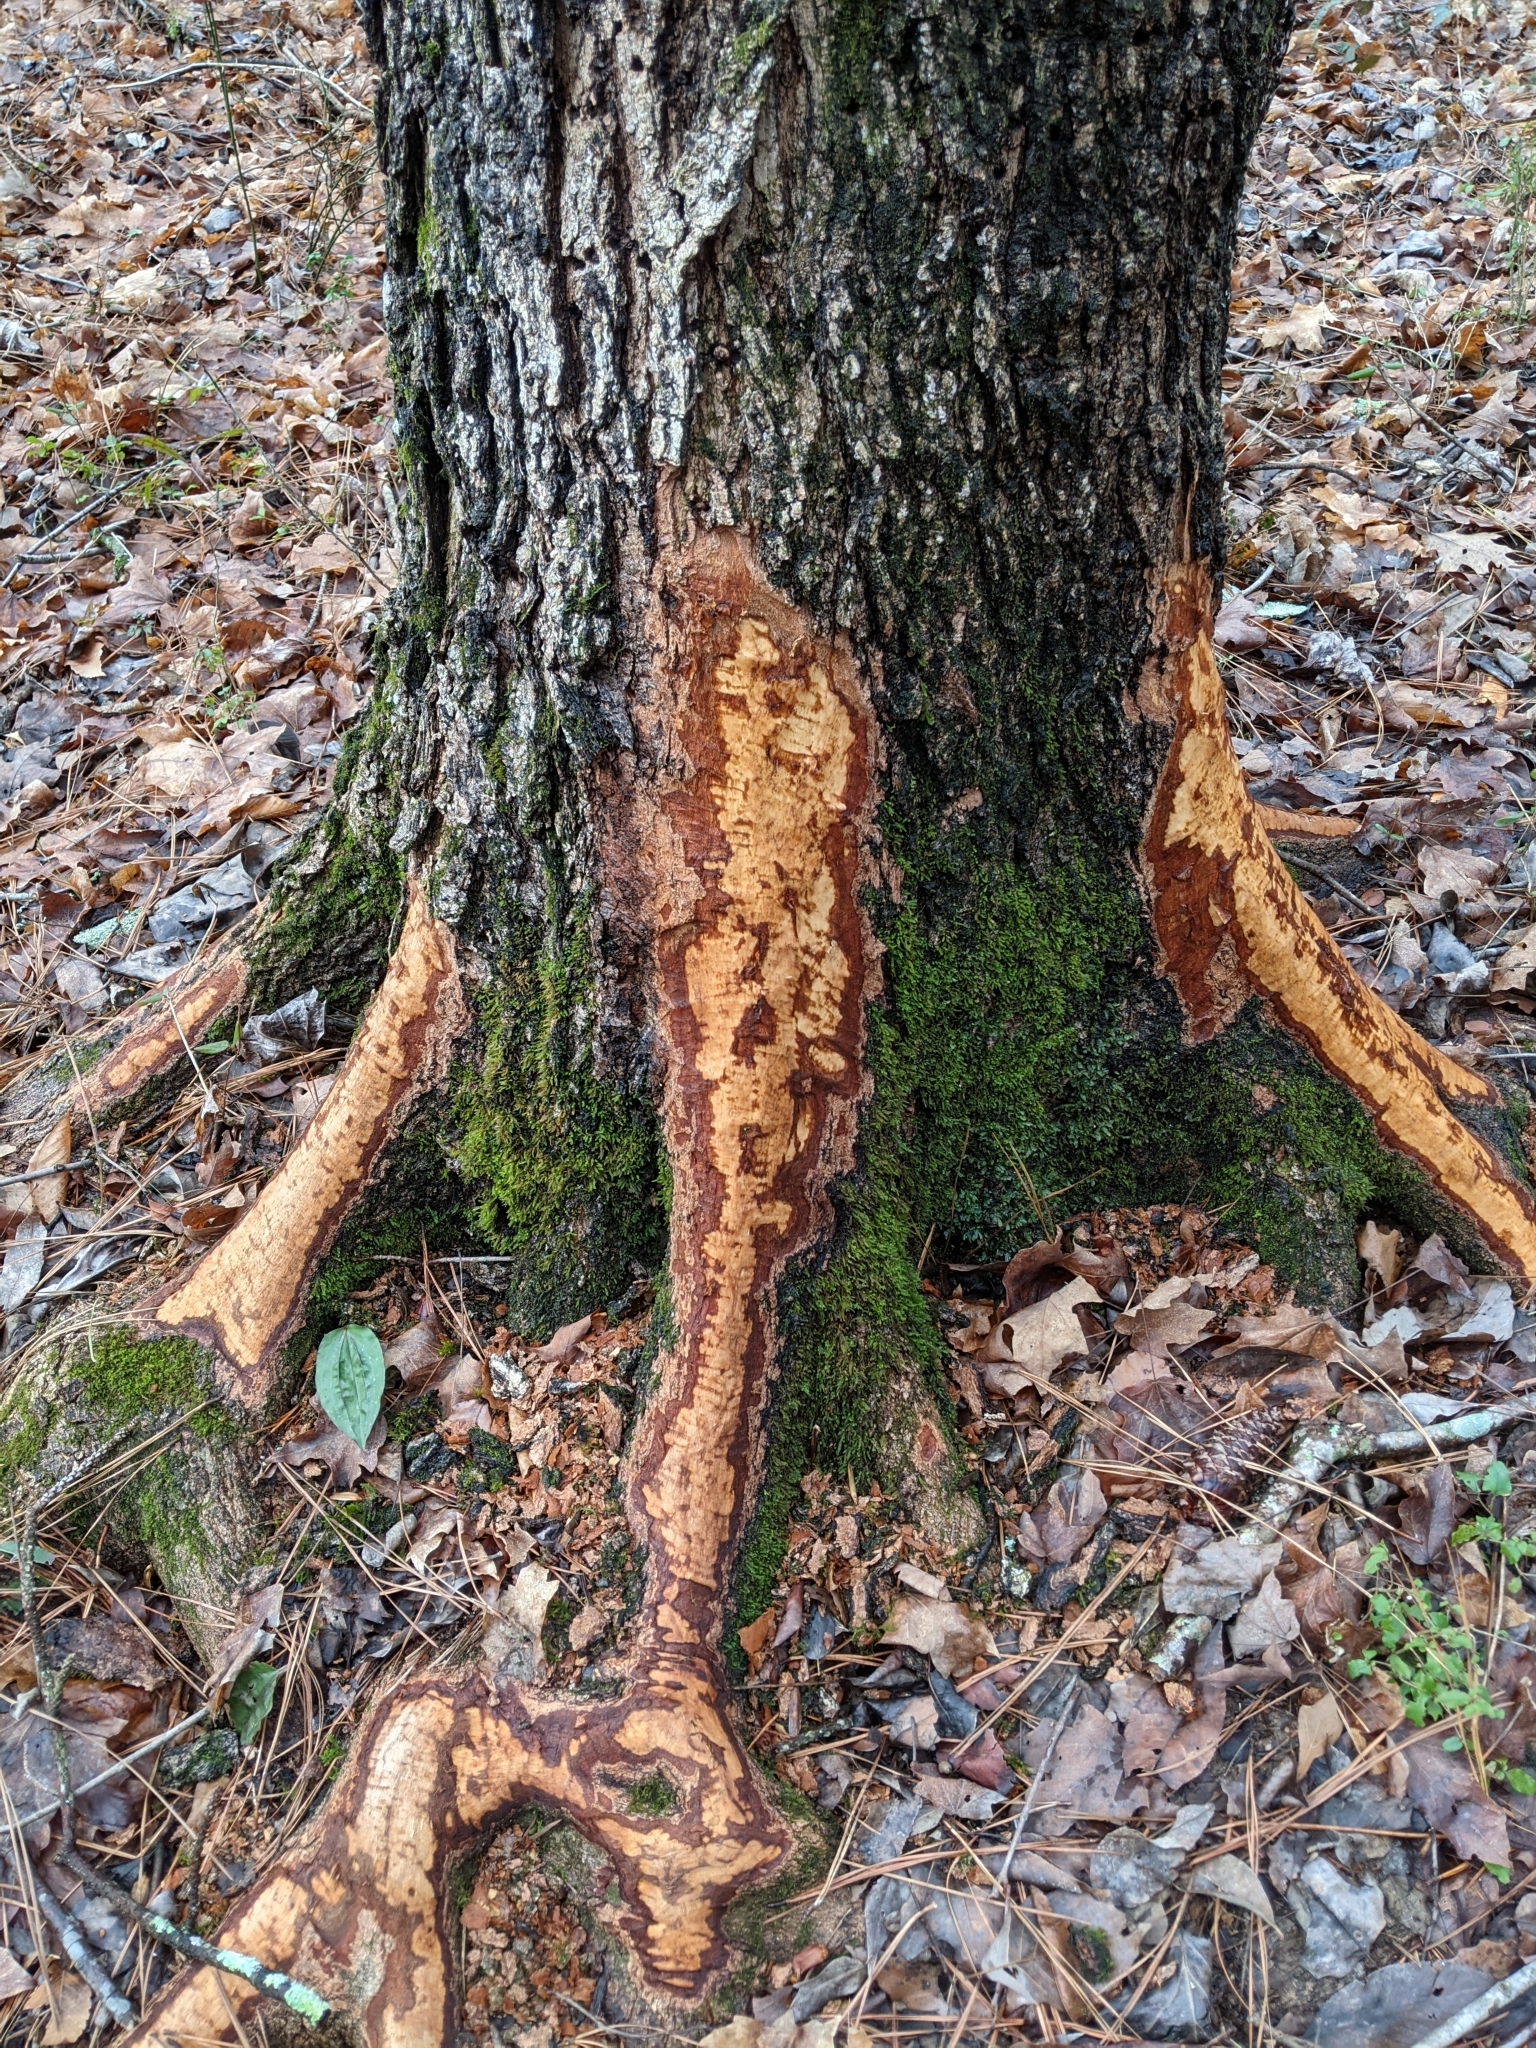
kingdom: Animalia
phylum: Chordata
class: Mammalia
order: Rodentia
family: Castoridae
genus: Castor
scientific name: Castor canadensis
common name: American beaver
